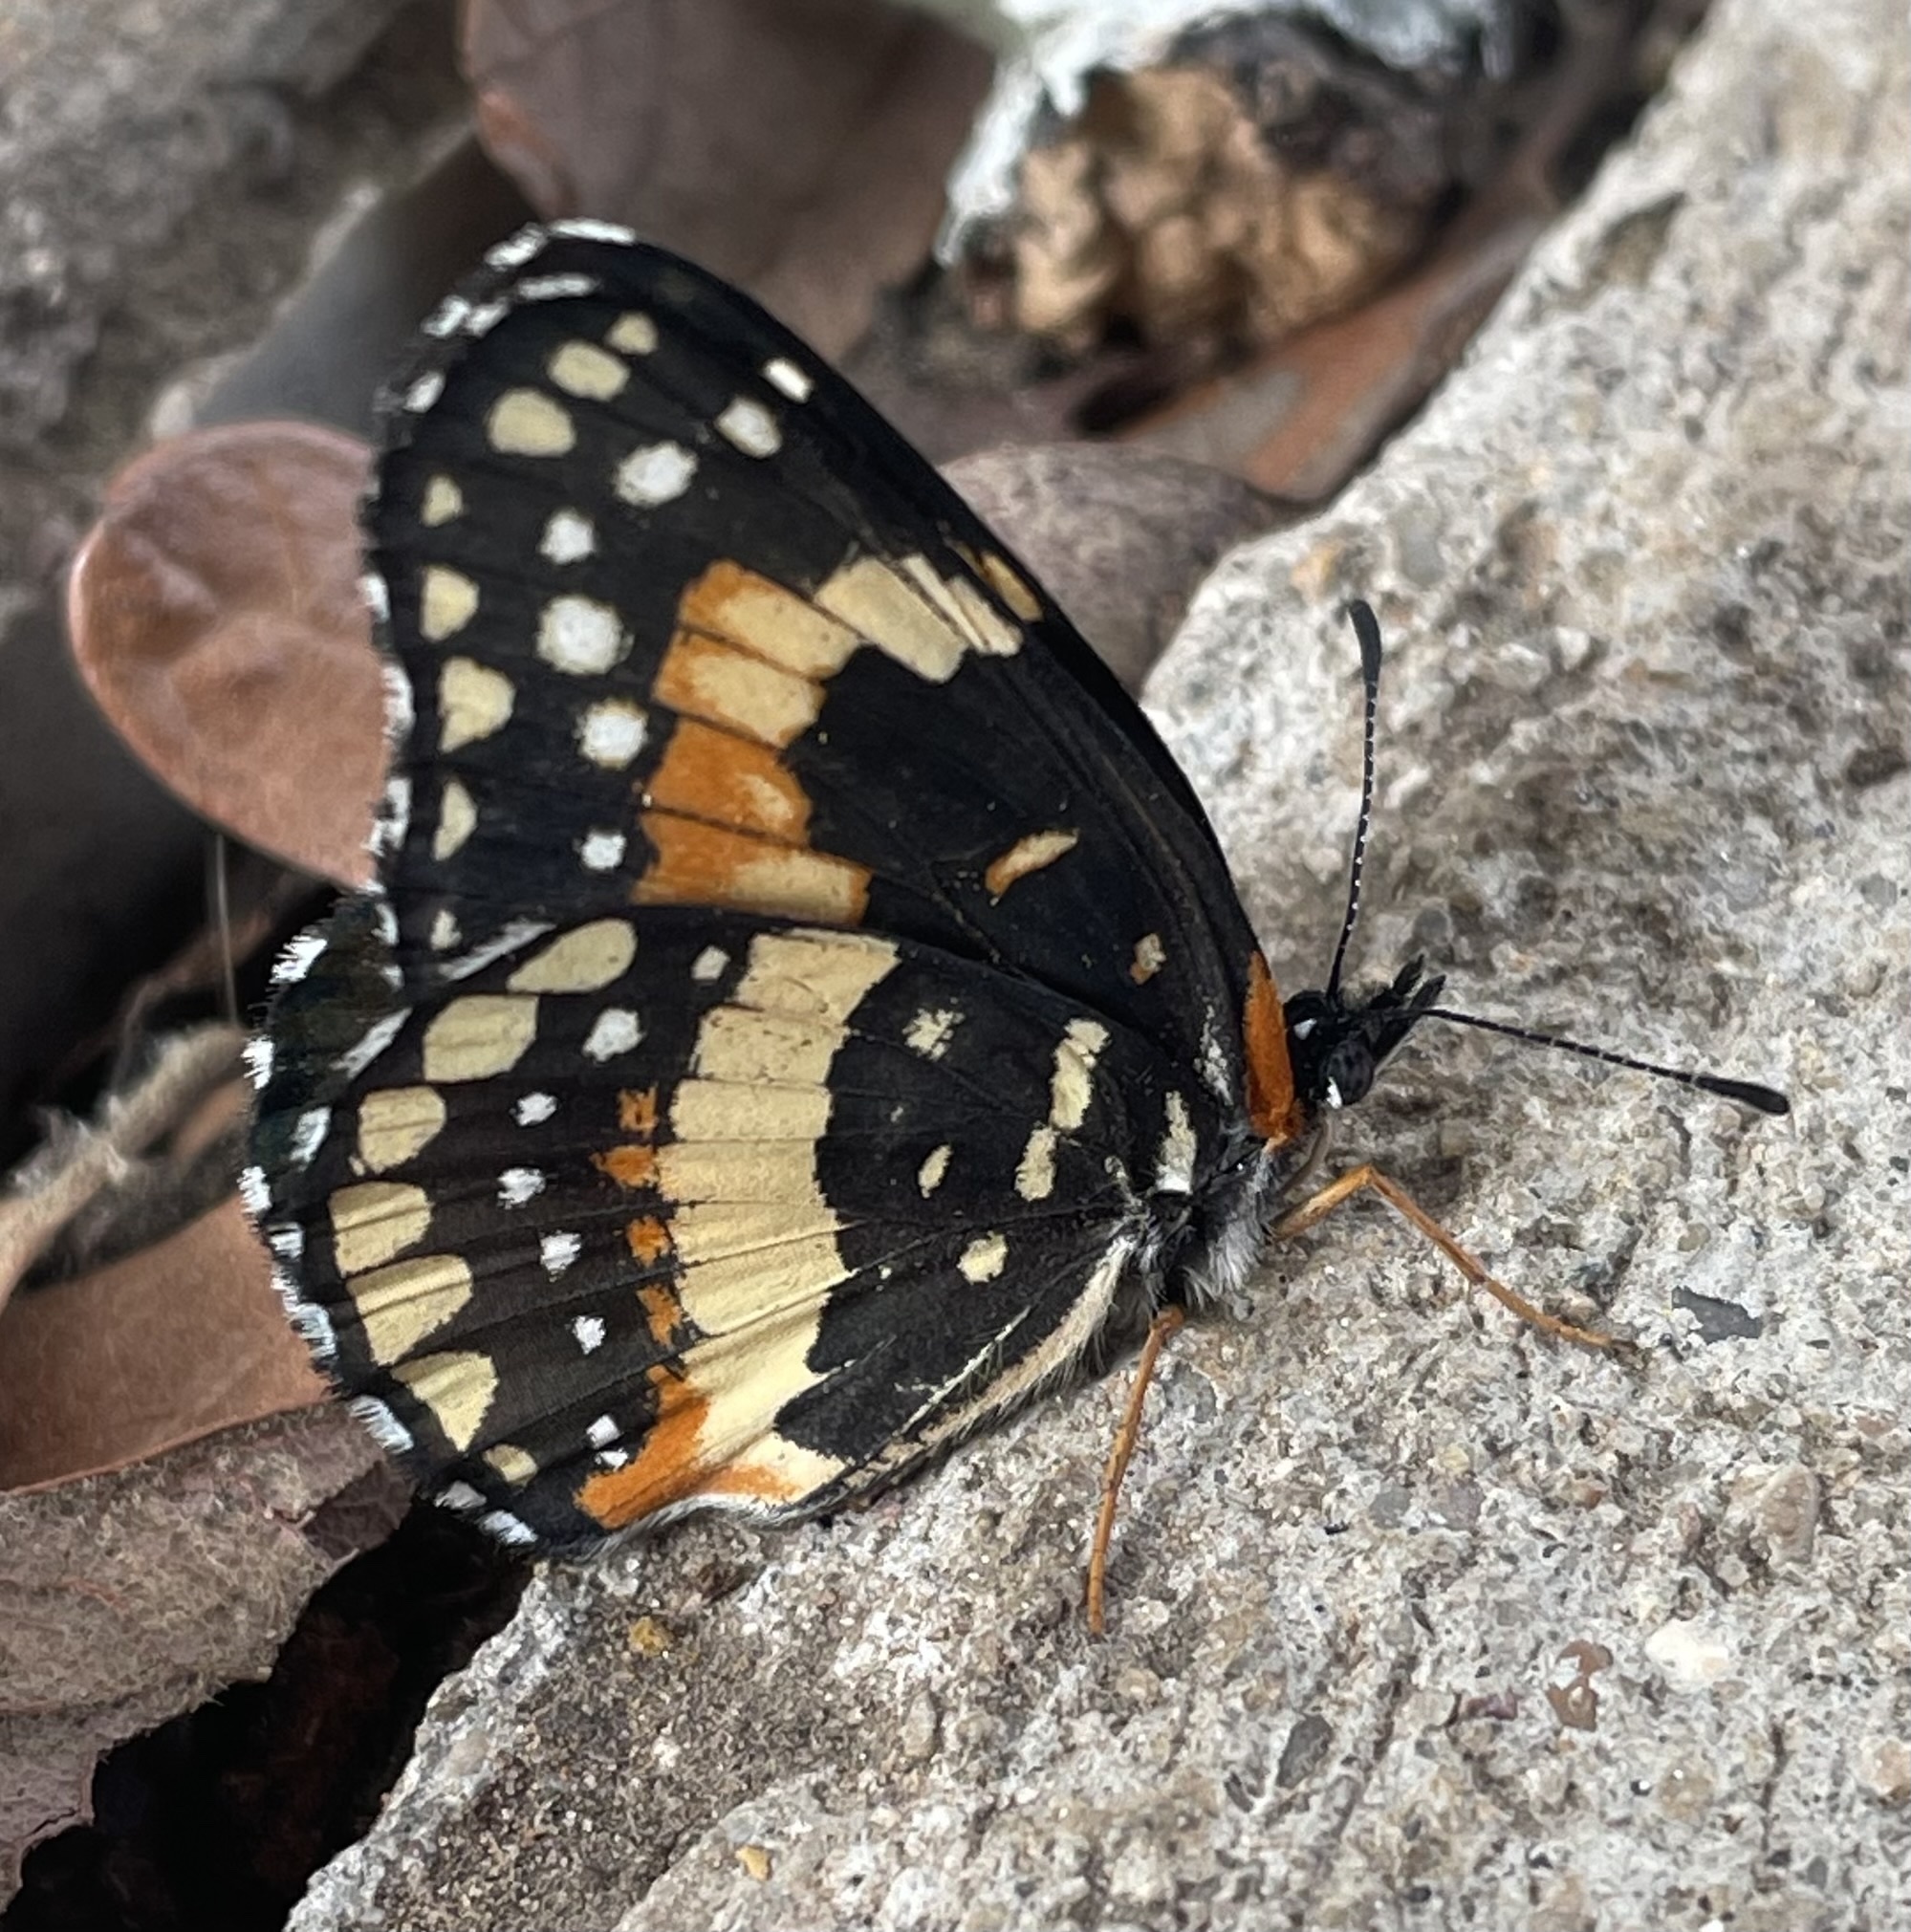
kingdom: Animalia
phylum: Arthropoda
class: Insecta
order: Lepidoptera
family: Nymphalidae
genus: Chlosyne
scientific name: Chlosyne lacinia
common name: Bordered patch
